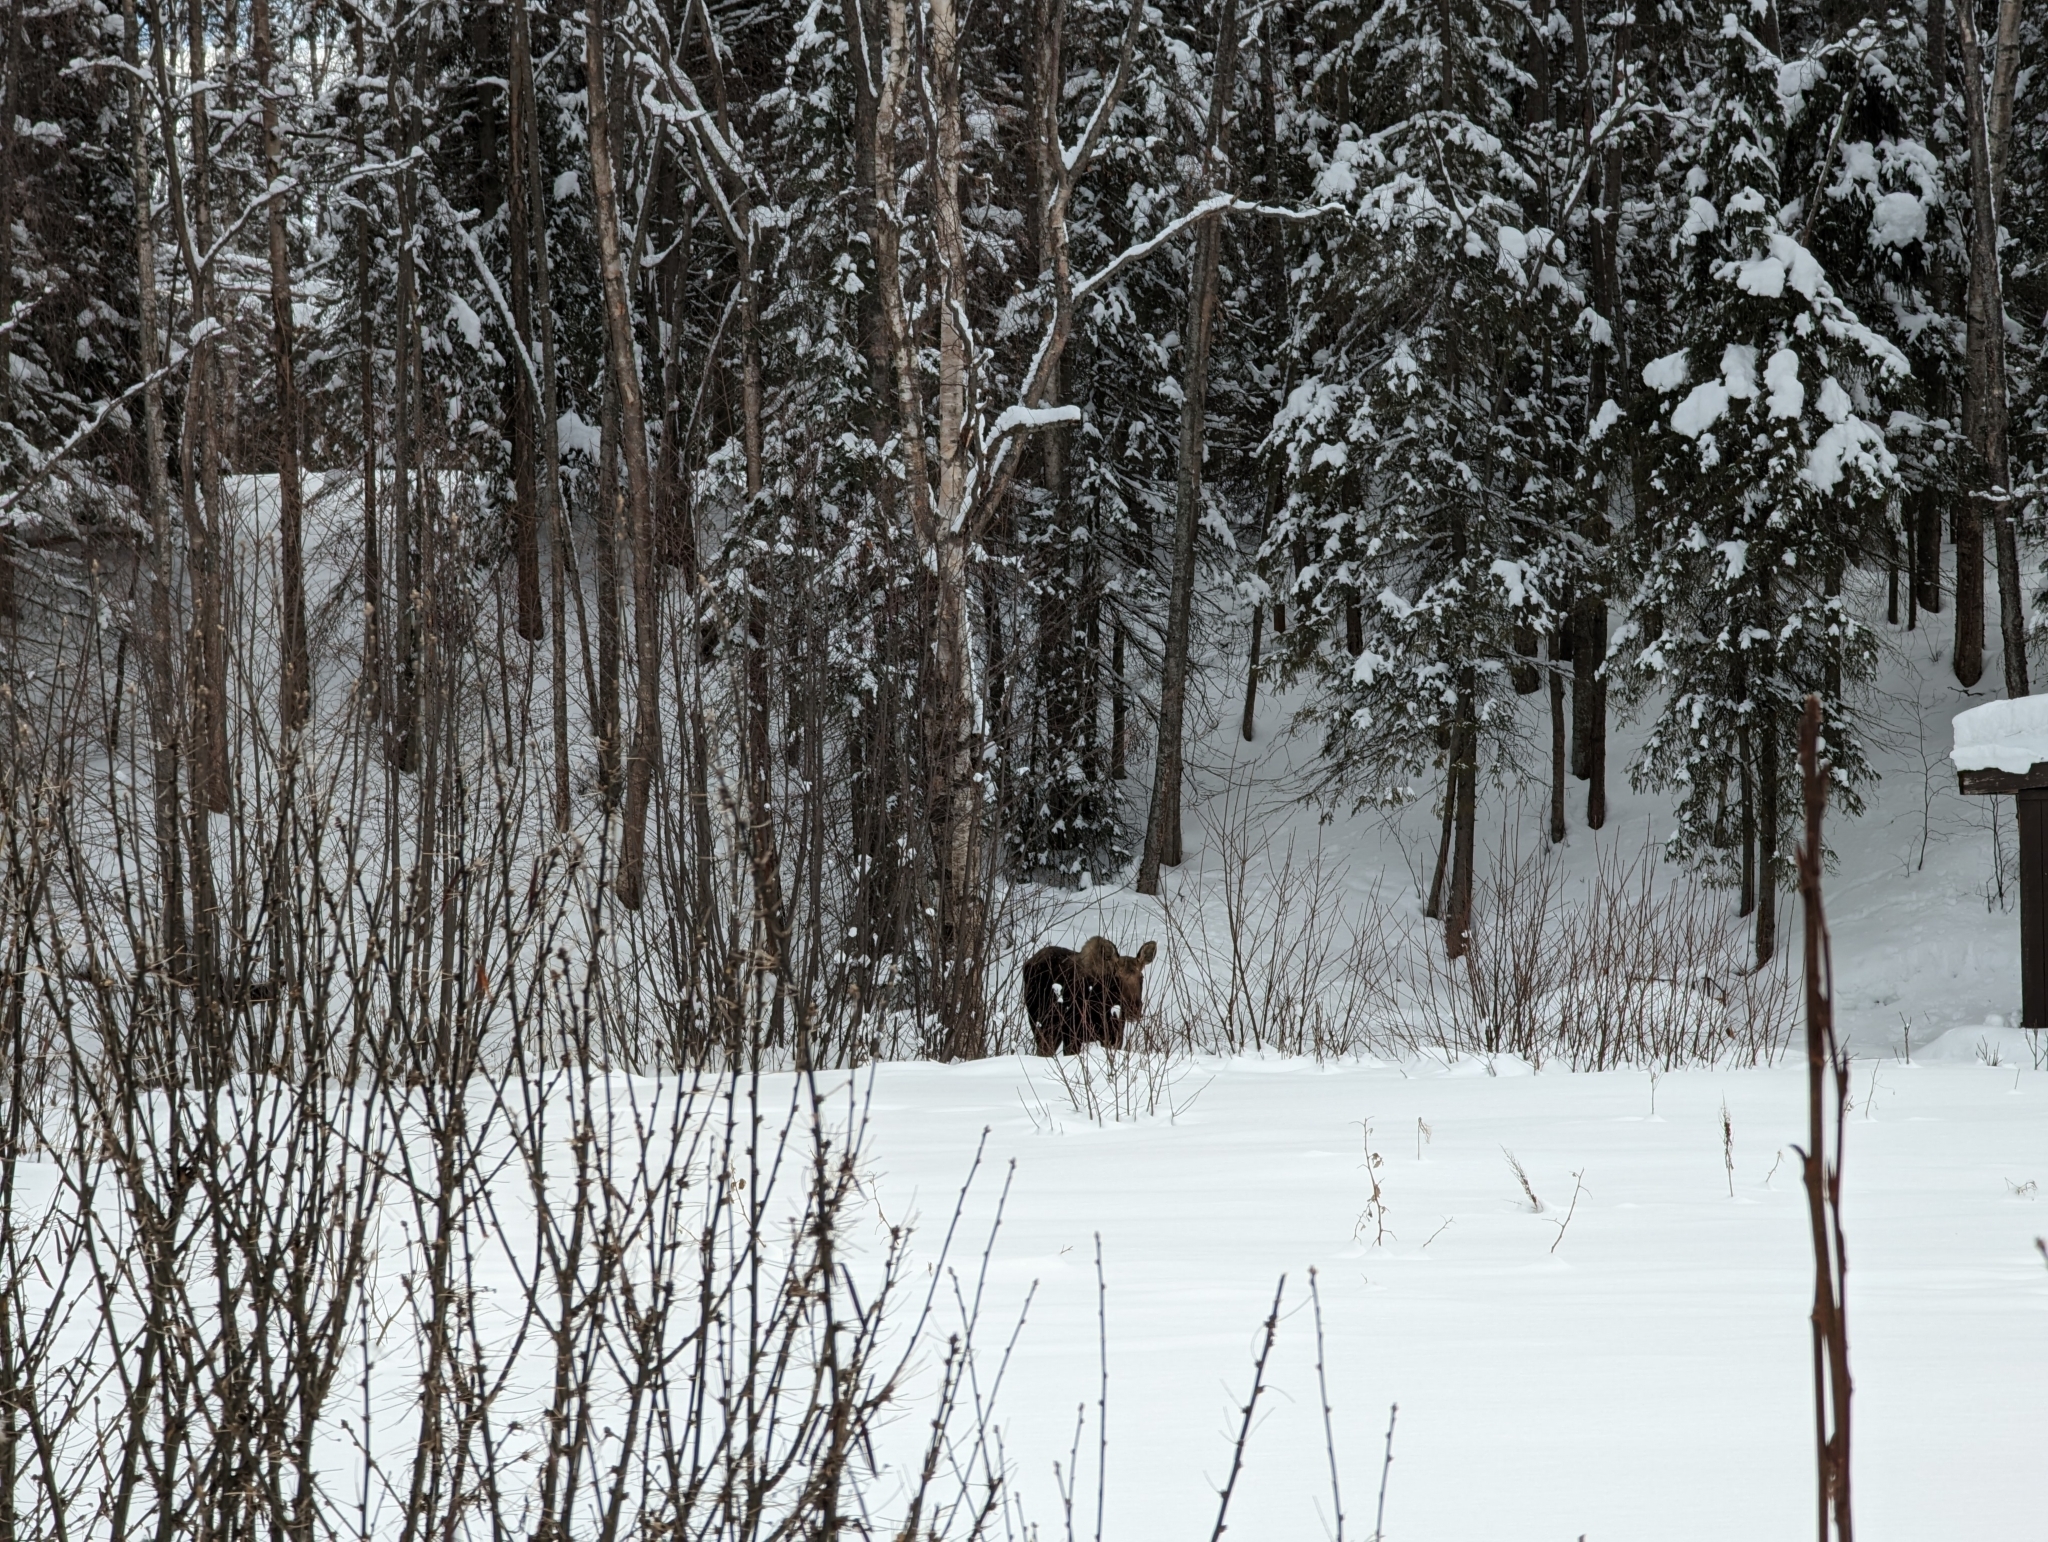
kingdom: Animalia
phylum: Chordata
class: Mammalia
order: Artiodactyla
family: Cervidae
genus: Alces
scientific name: Alces alces
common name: Moose
